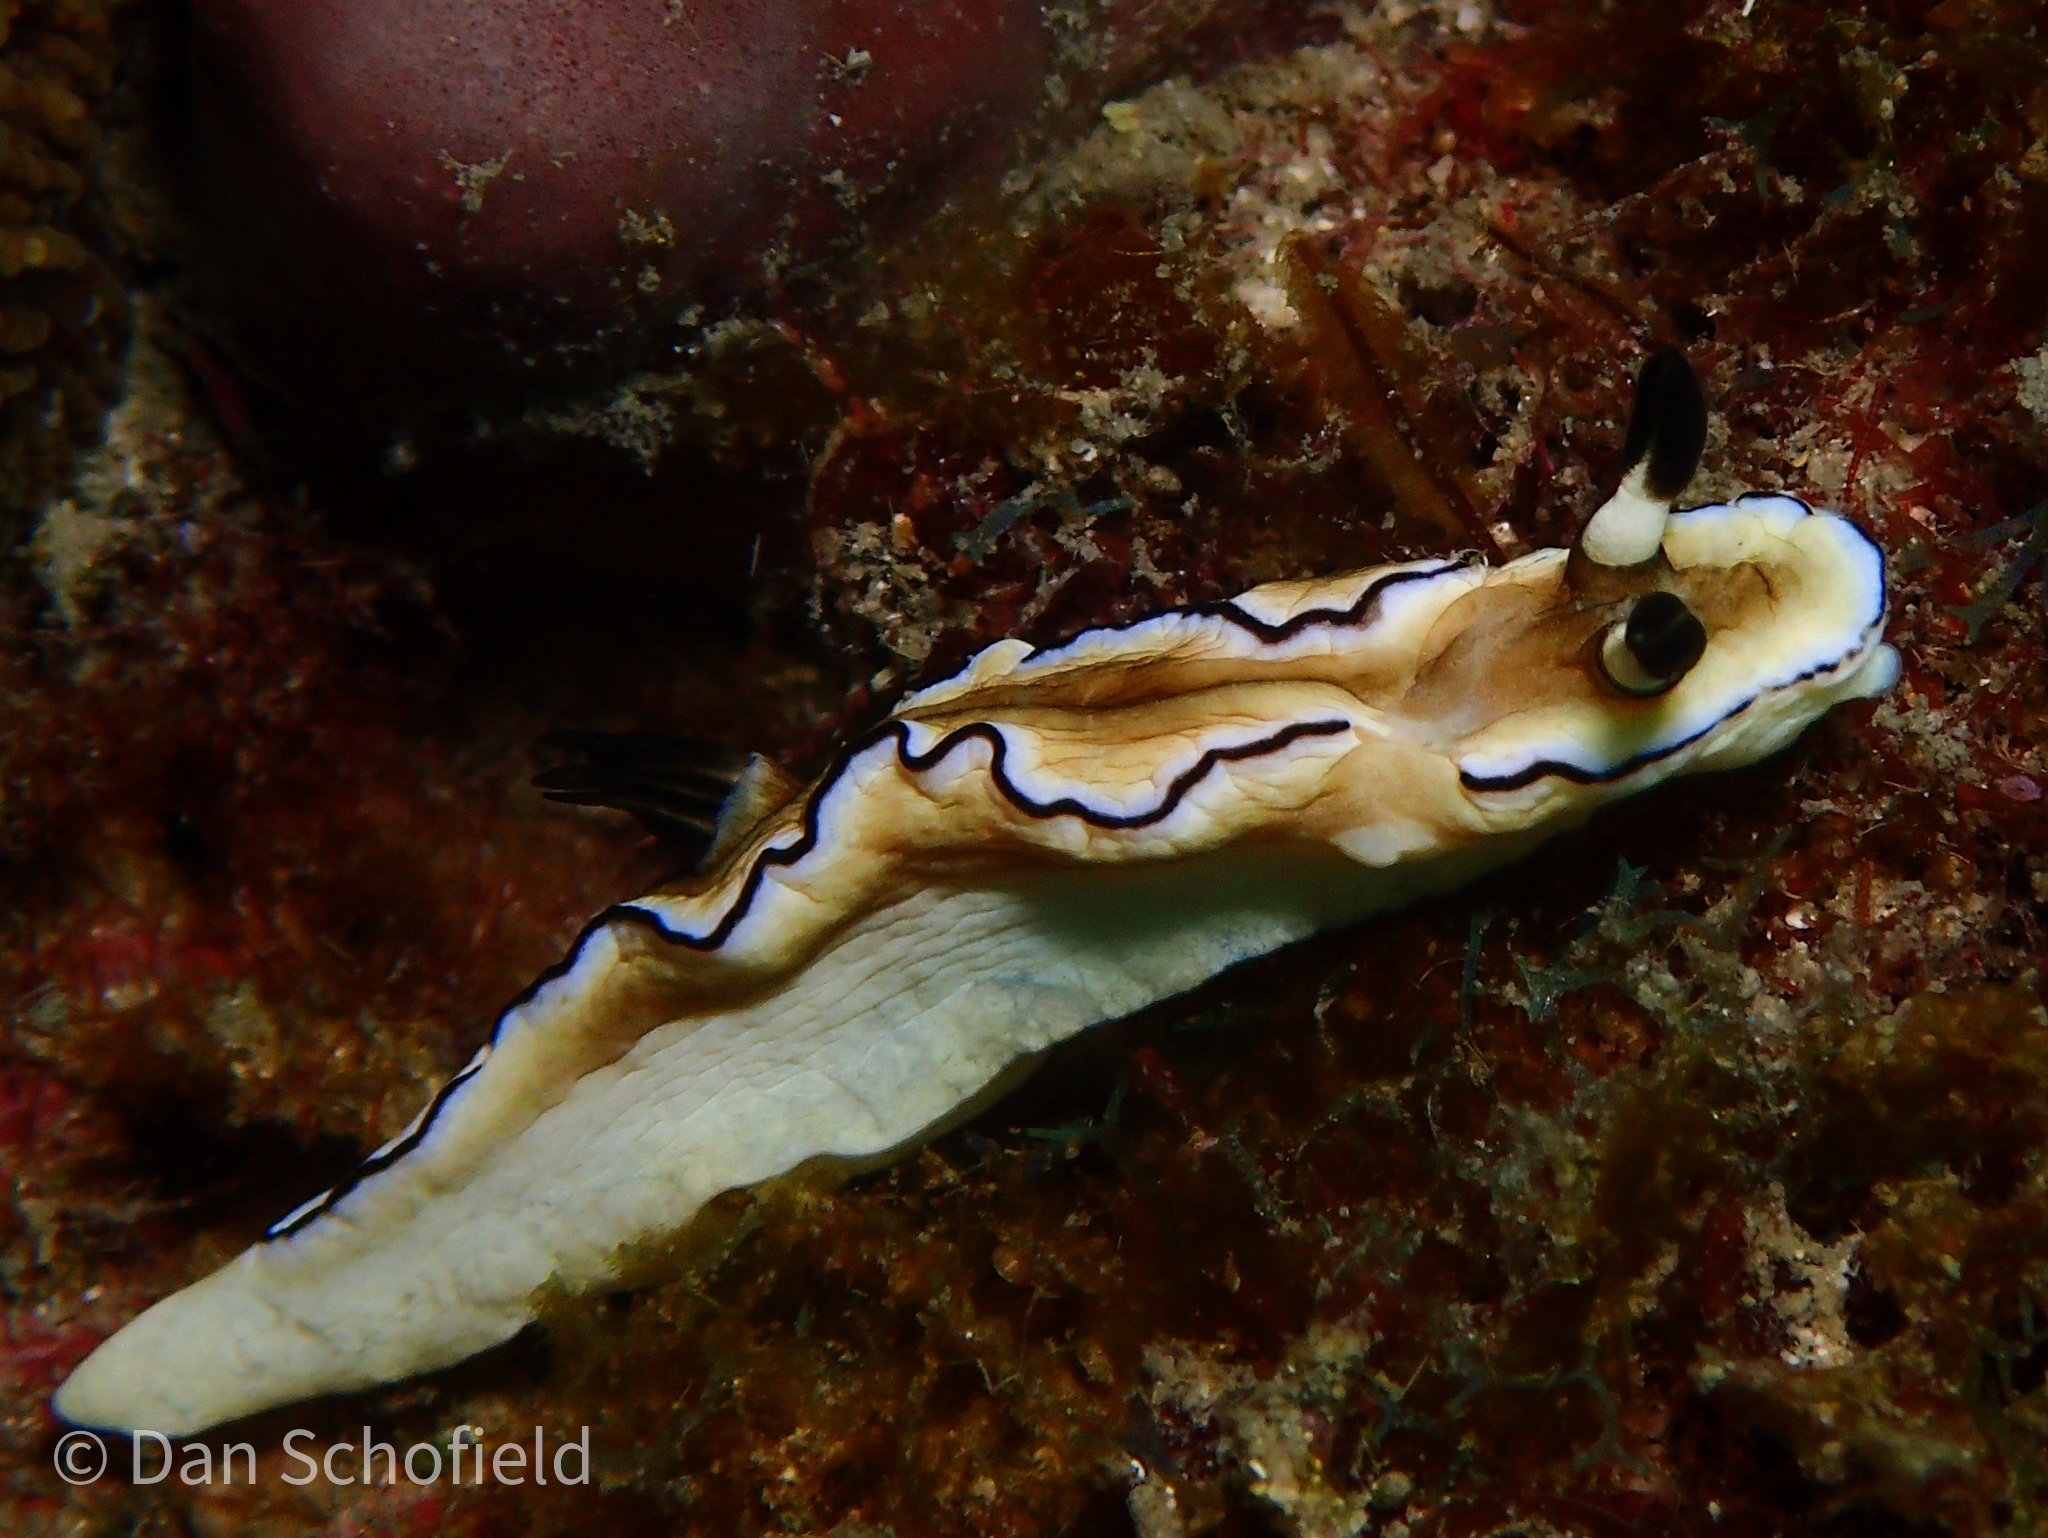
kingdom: Animalia
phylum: Mollusca
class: Gastropoda
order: Nudibranchia
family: Chromodorididae
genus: Doriprismatica
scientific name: Doriprismatica atromarginata
